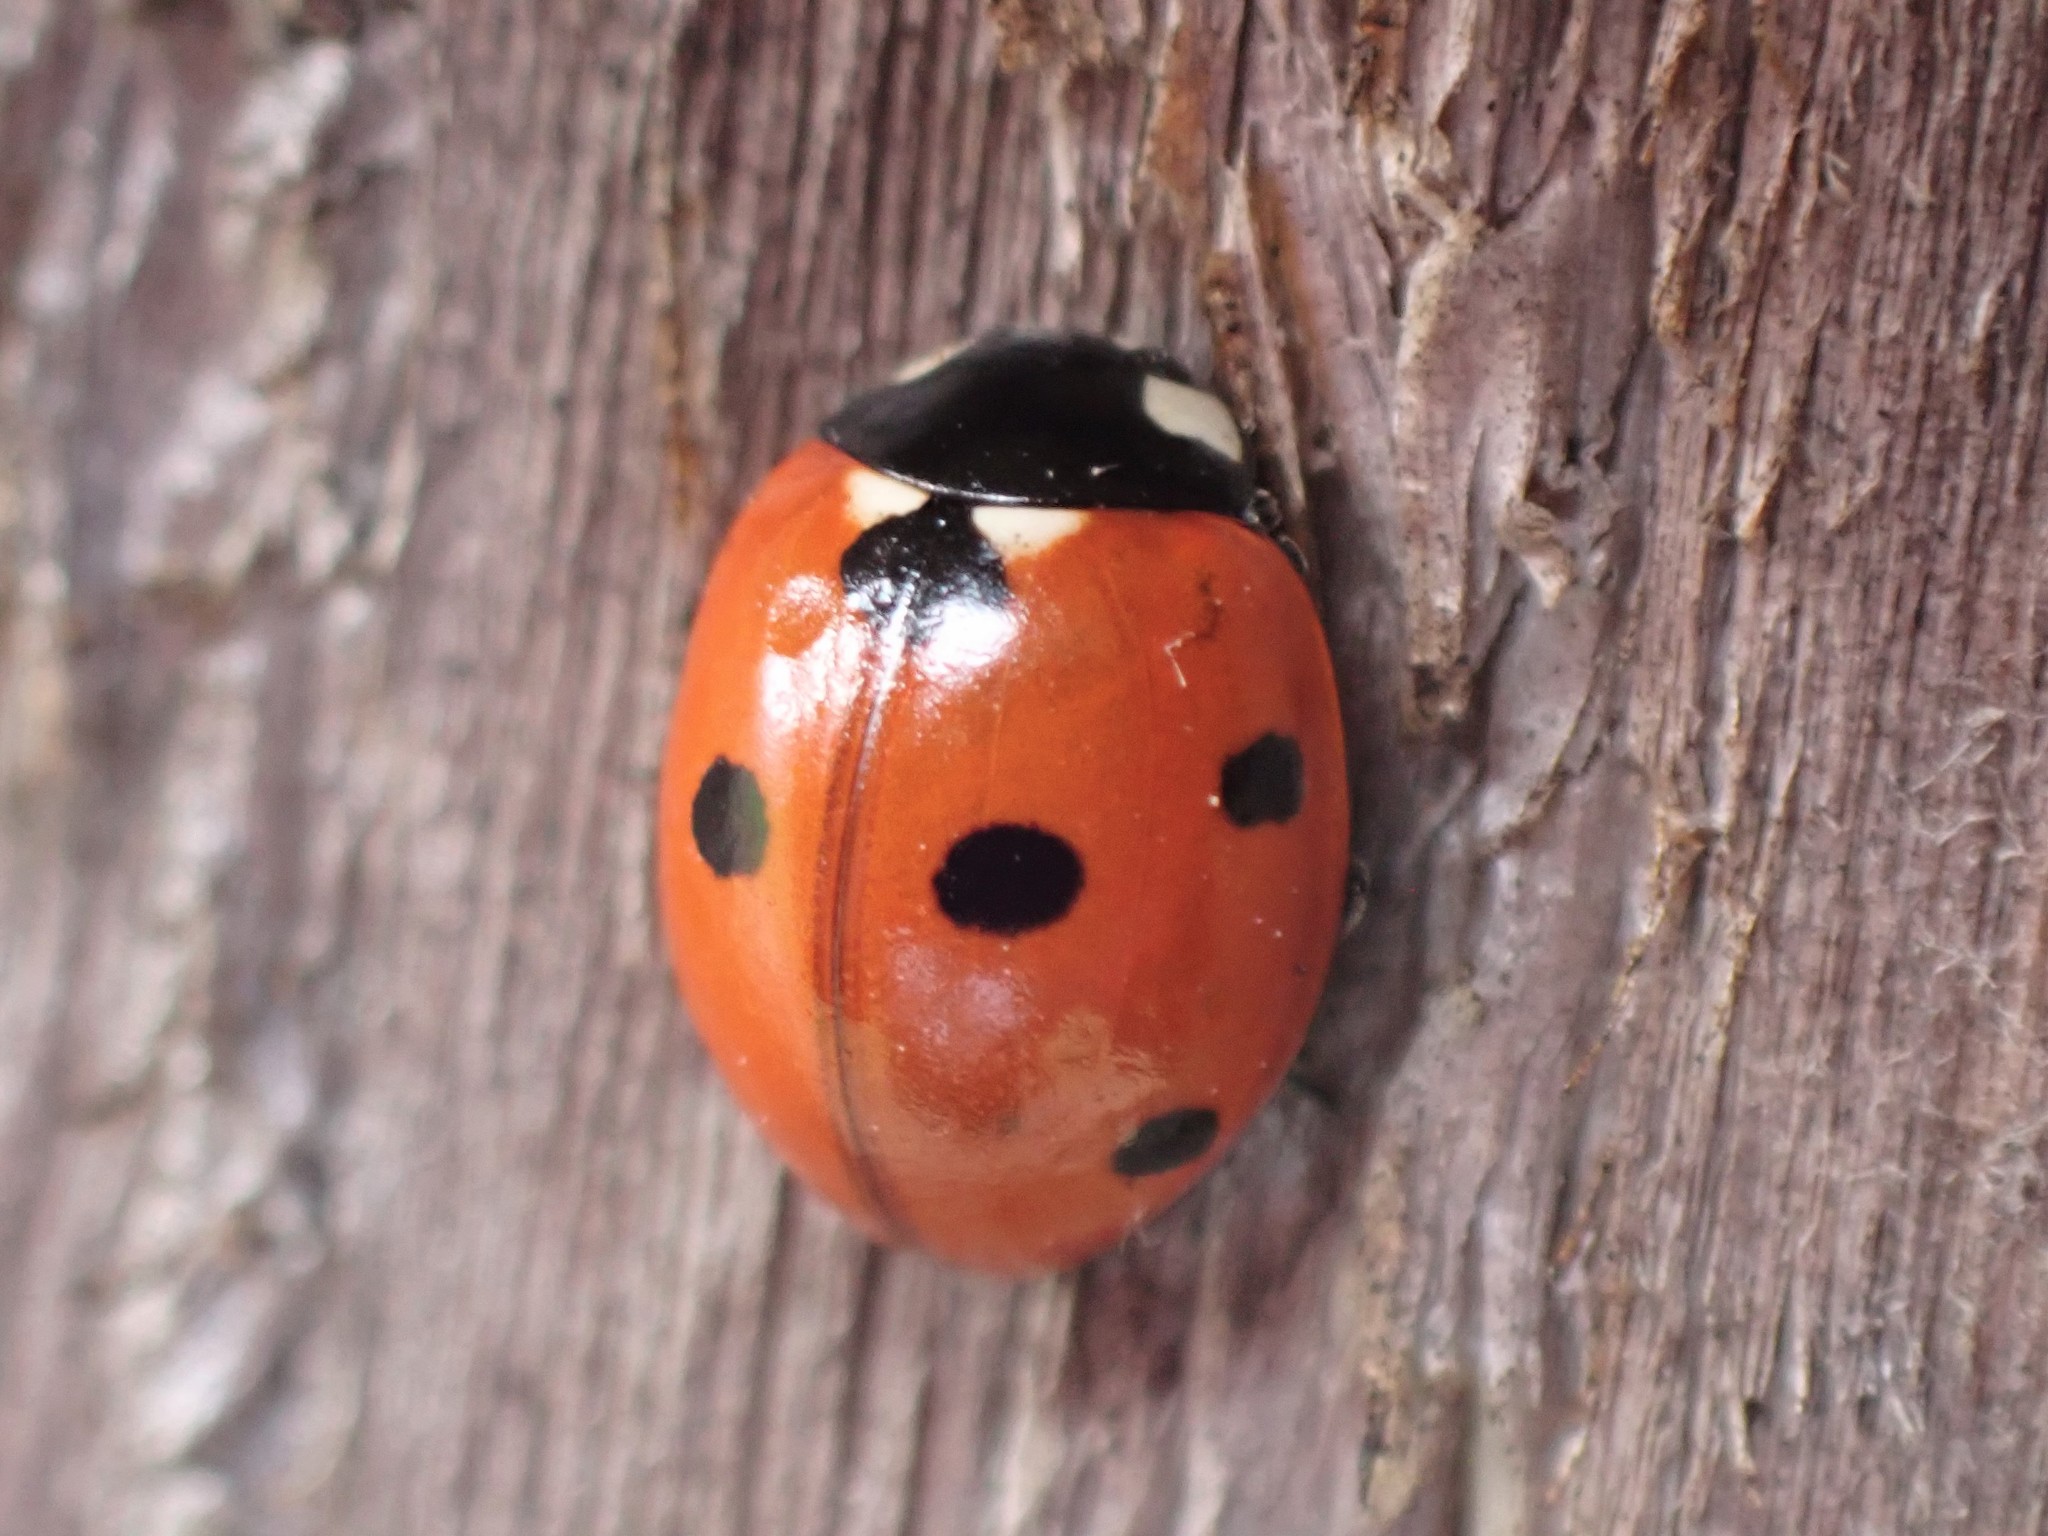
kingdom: Animalia
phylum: Arthropoda
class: Insecta
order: Coleoptera
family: Coccinellidae
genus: Coccinella
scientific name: Coccinella septempunctata
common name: Sevenspotted lady beetle
